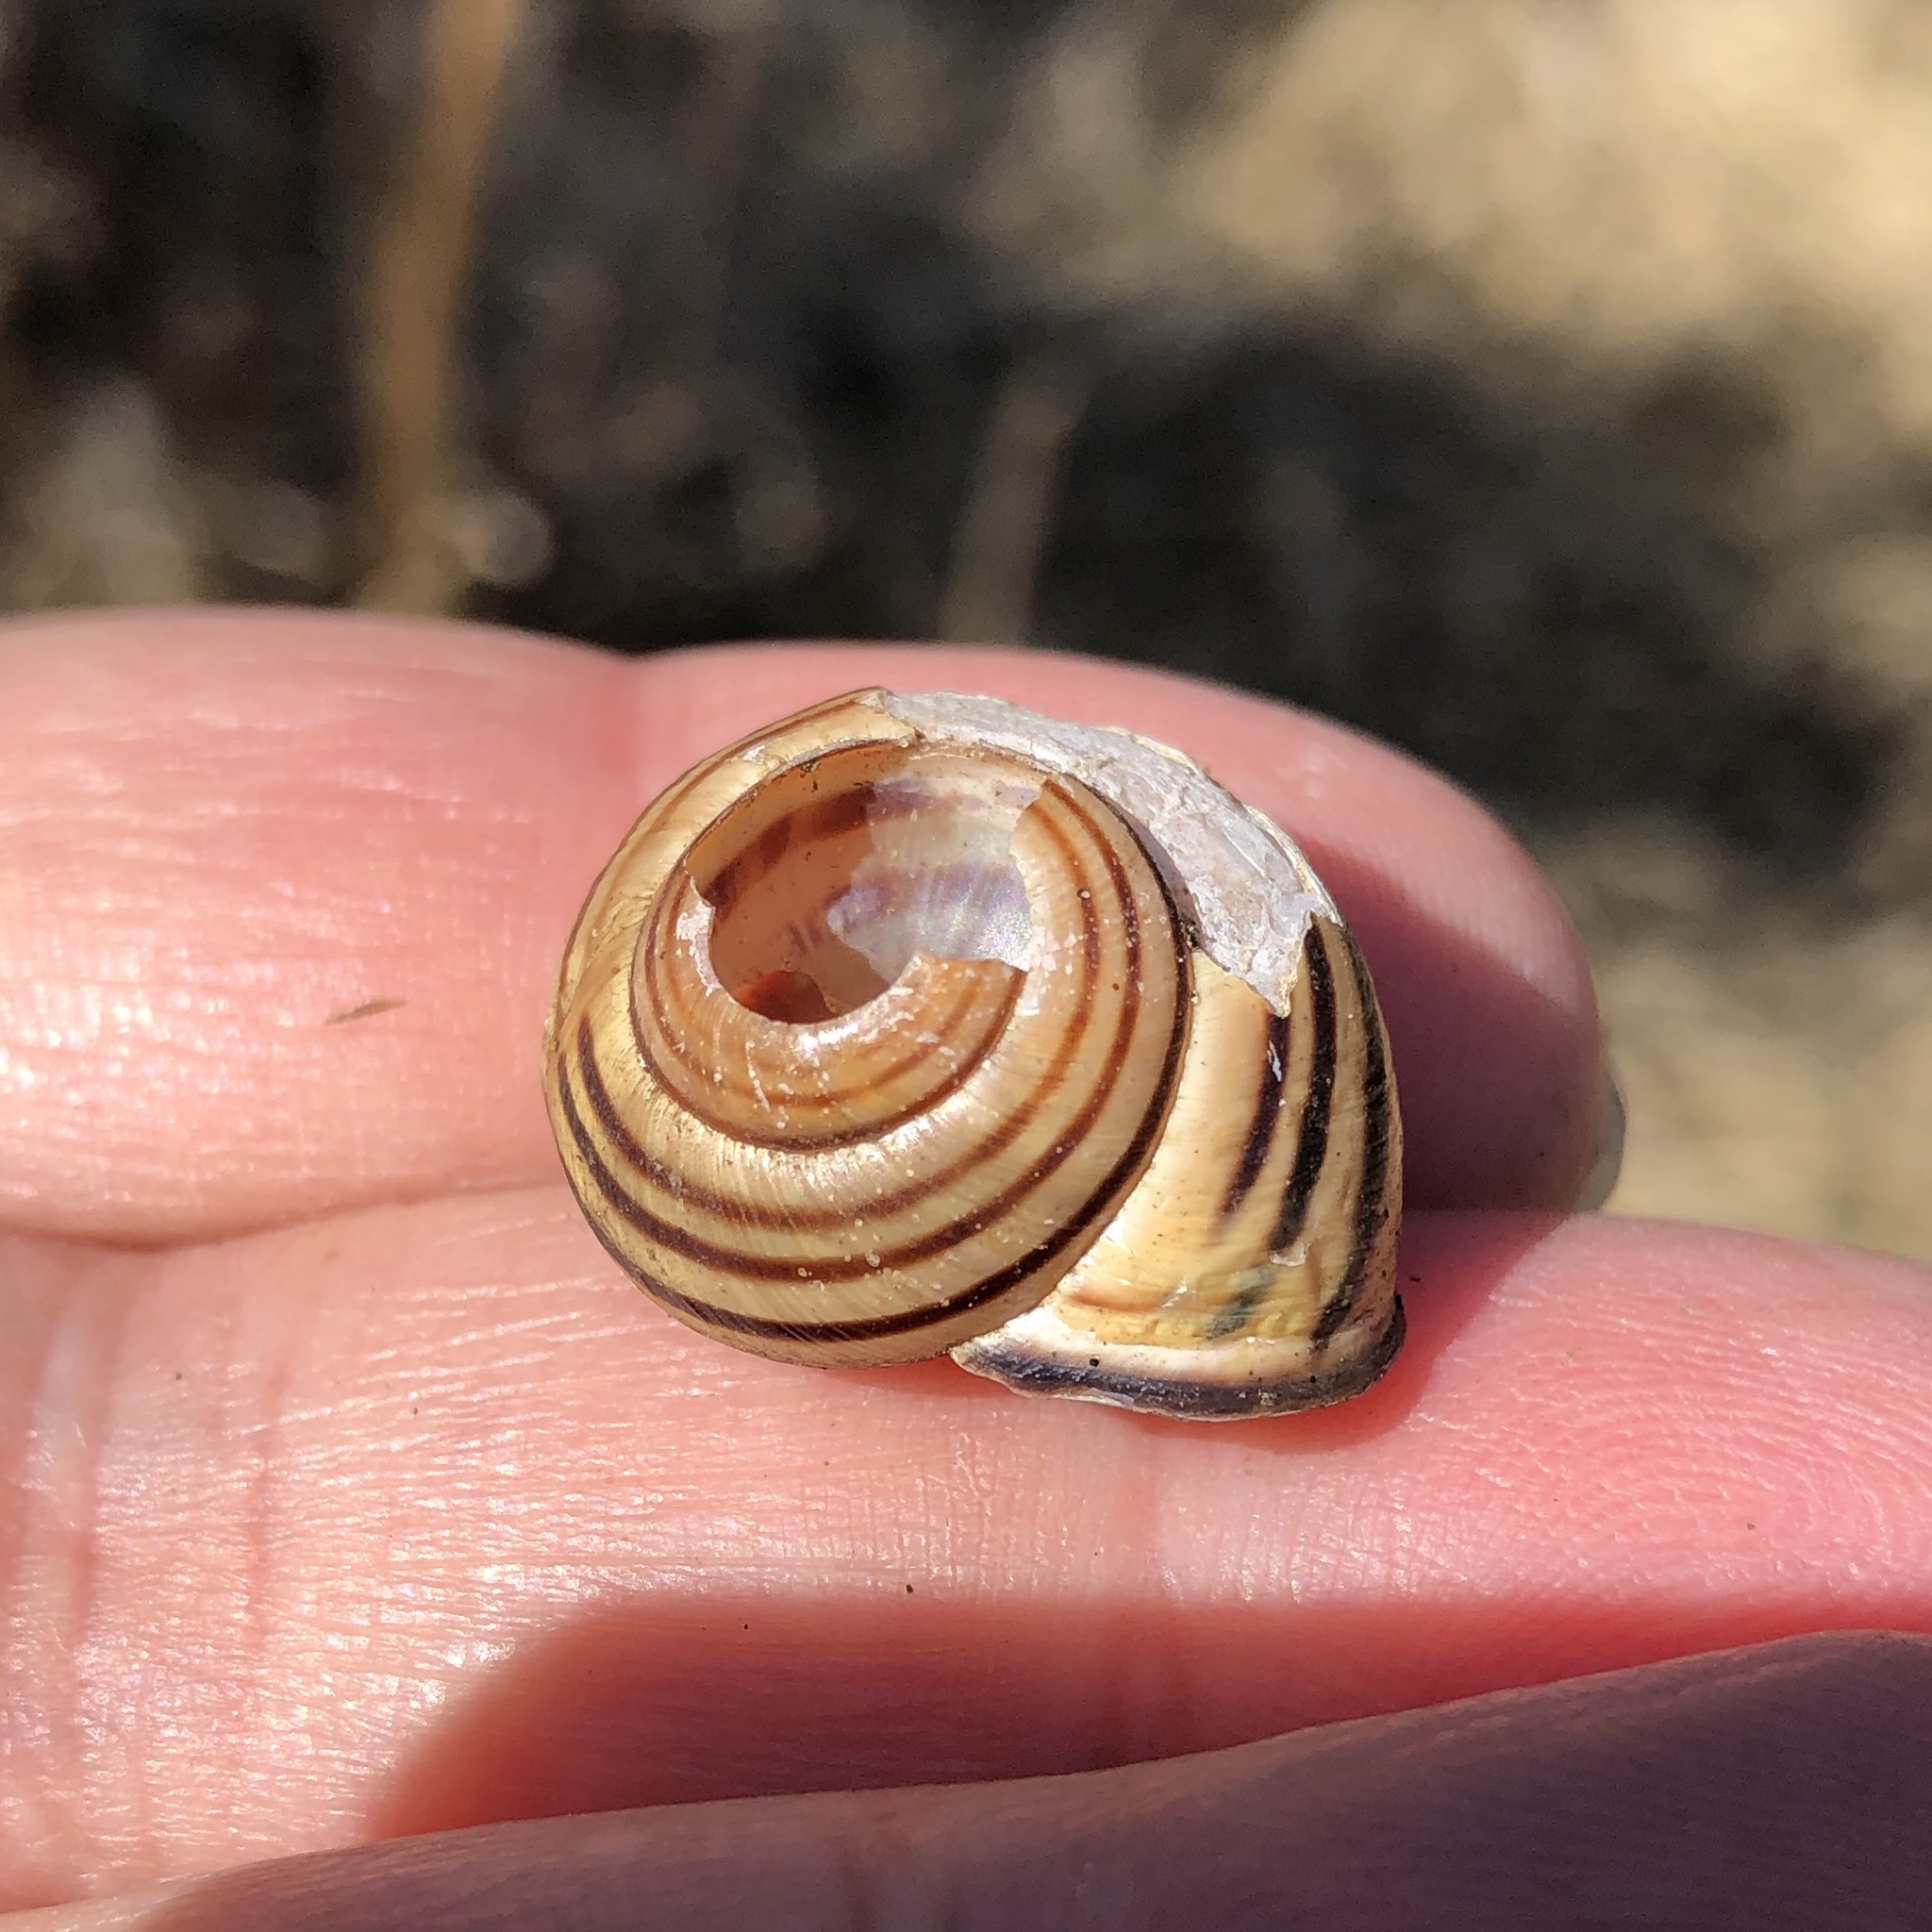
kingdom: Animalia
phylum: Mollusca
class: Gastropoda
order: Stylommatophora
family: Helicidae
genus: Cepaea
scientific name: Cepaea nemoralis
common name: Grovesnail
